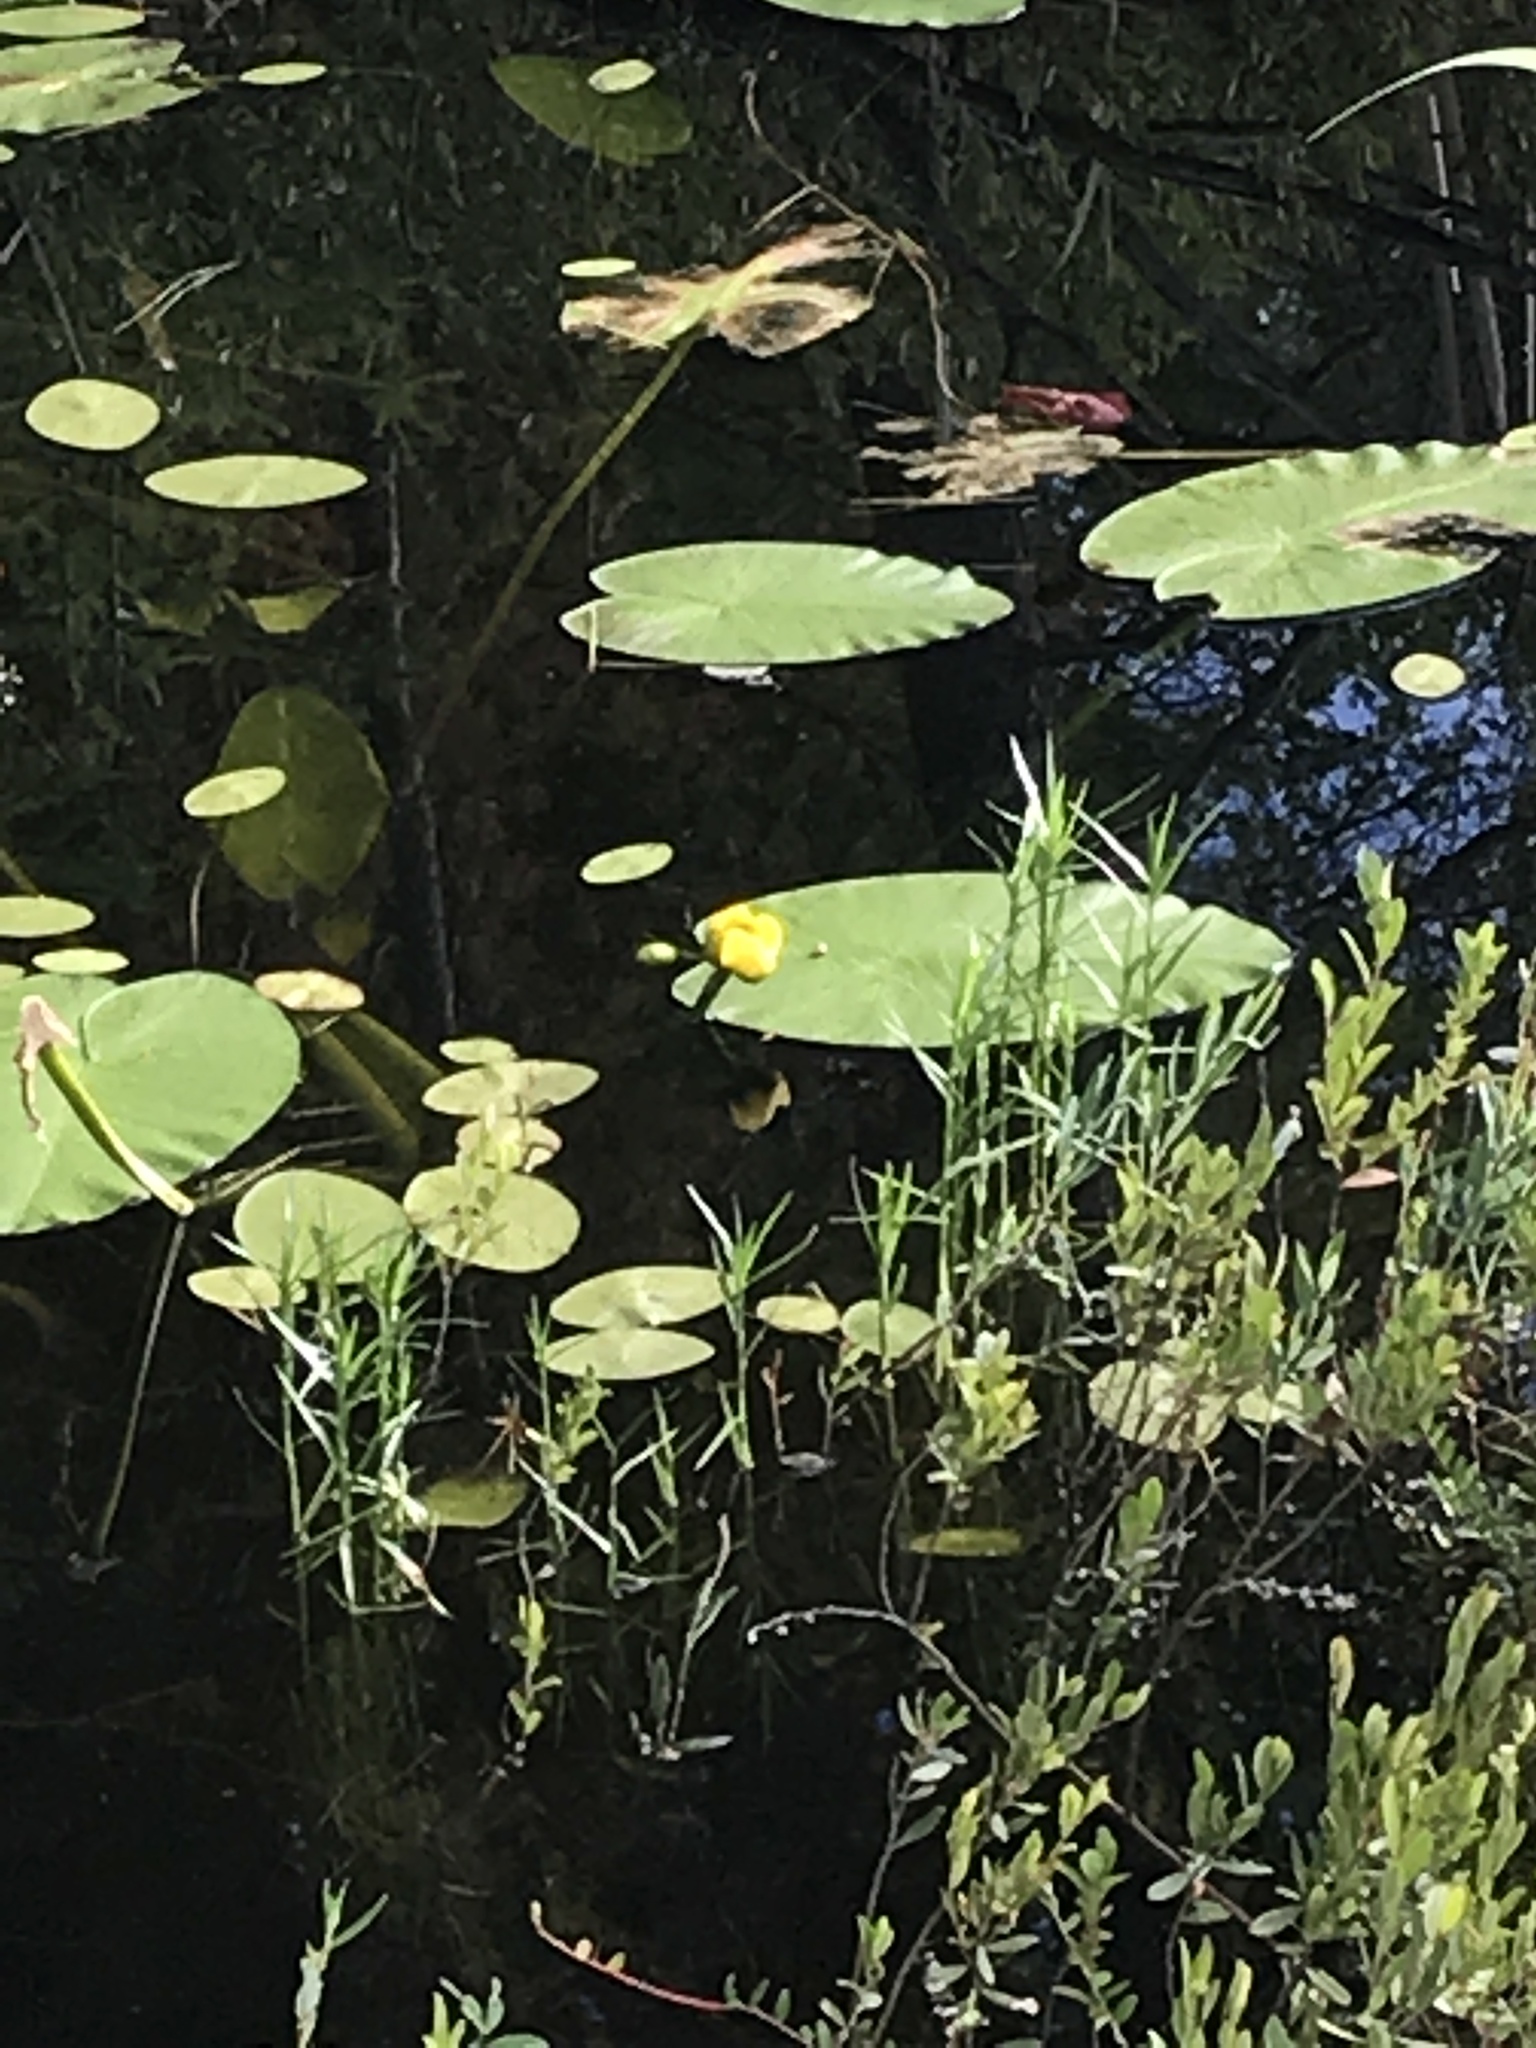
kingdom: Plantae
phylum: Tracheophyta
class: Magnoliopsida
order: Nymphaeales
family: Nymphaeaceae
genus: Nuphar
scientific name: Nuphar variegata
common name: Beaver-root
